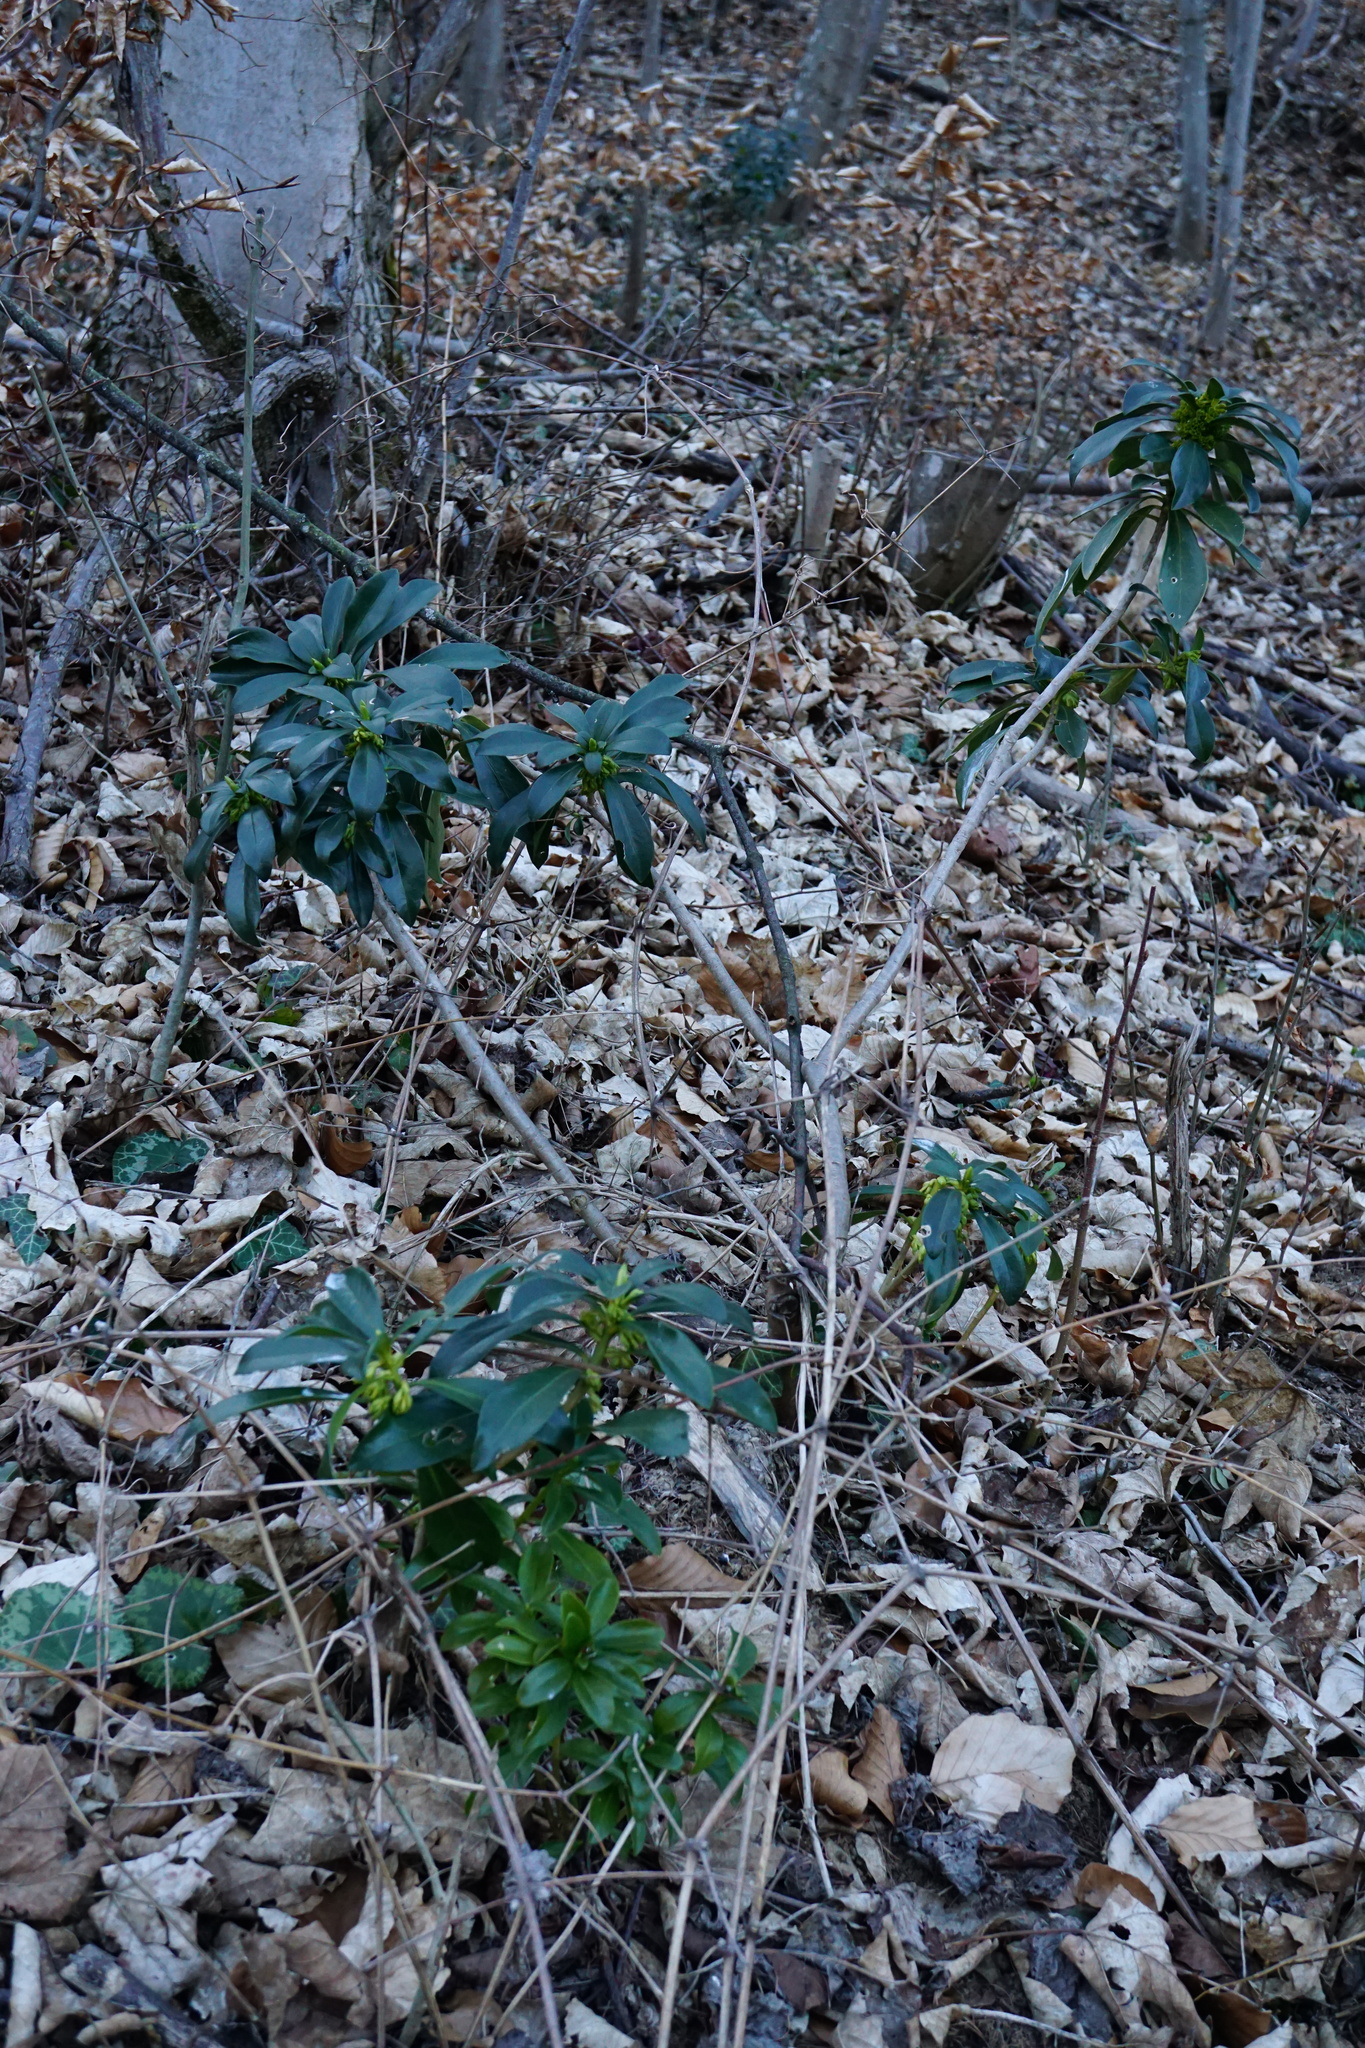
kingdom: Plantae
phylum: Tracheophyta
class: Magnoliopsida
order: Malvales
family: Thymelaeaceae
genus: Daphne
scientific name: Daphne laureola
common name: Spurge-laurel
